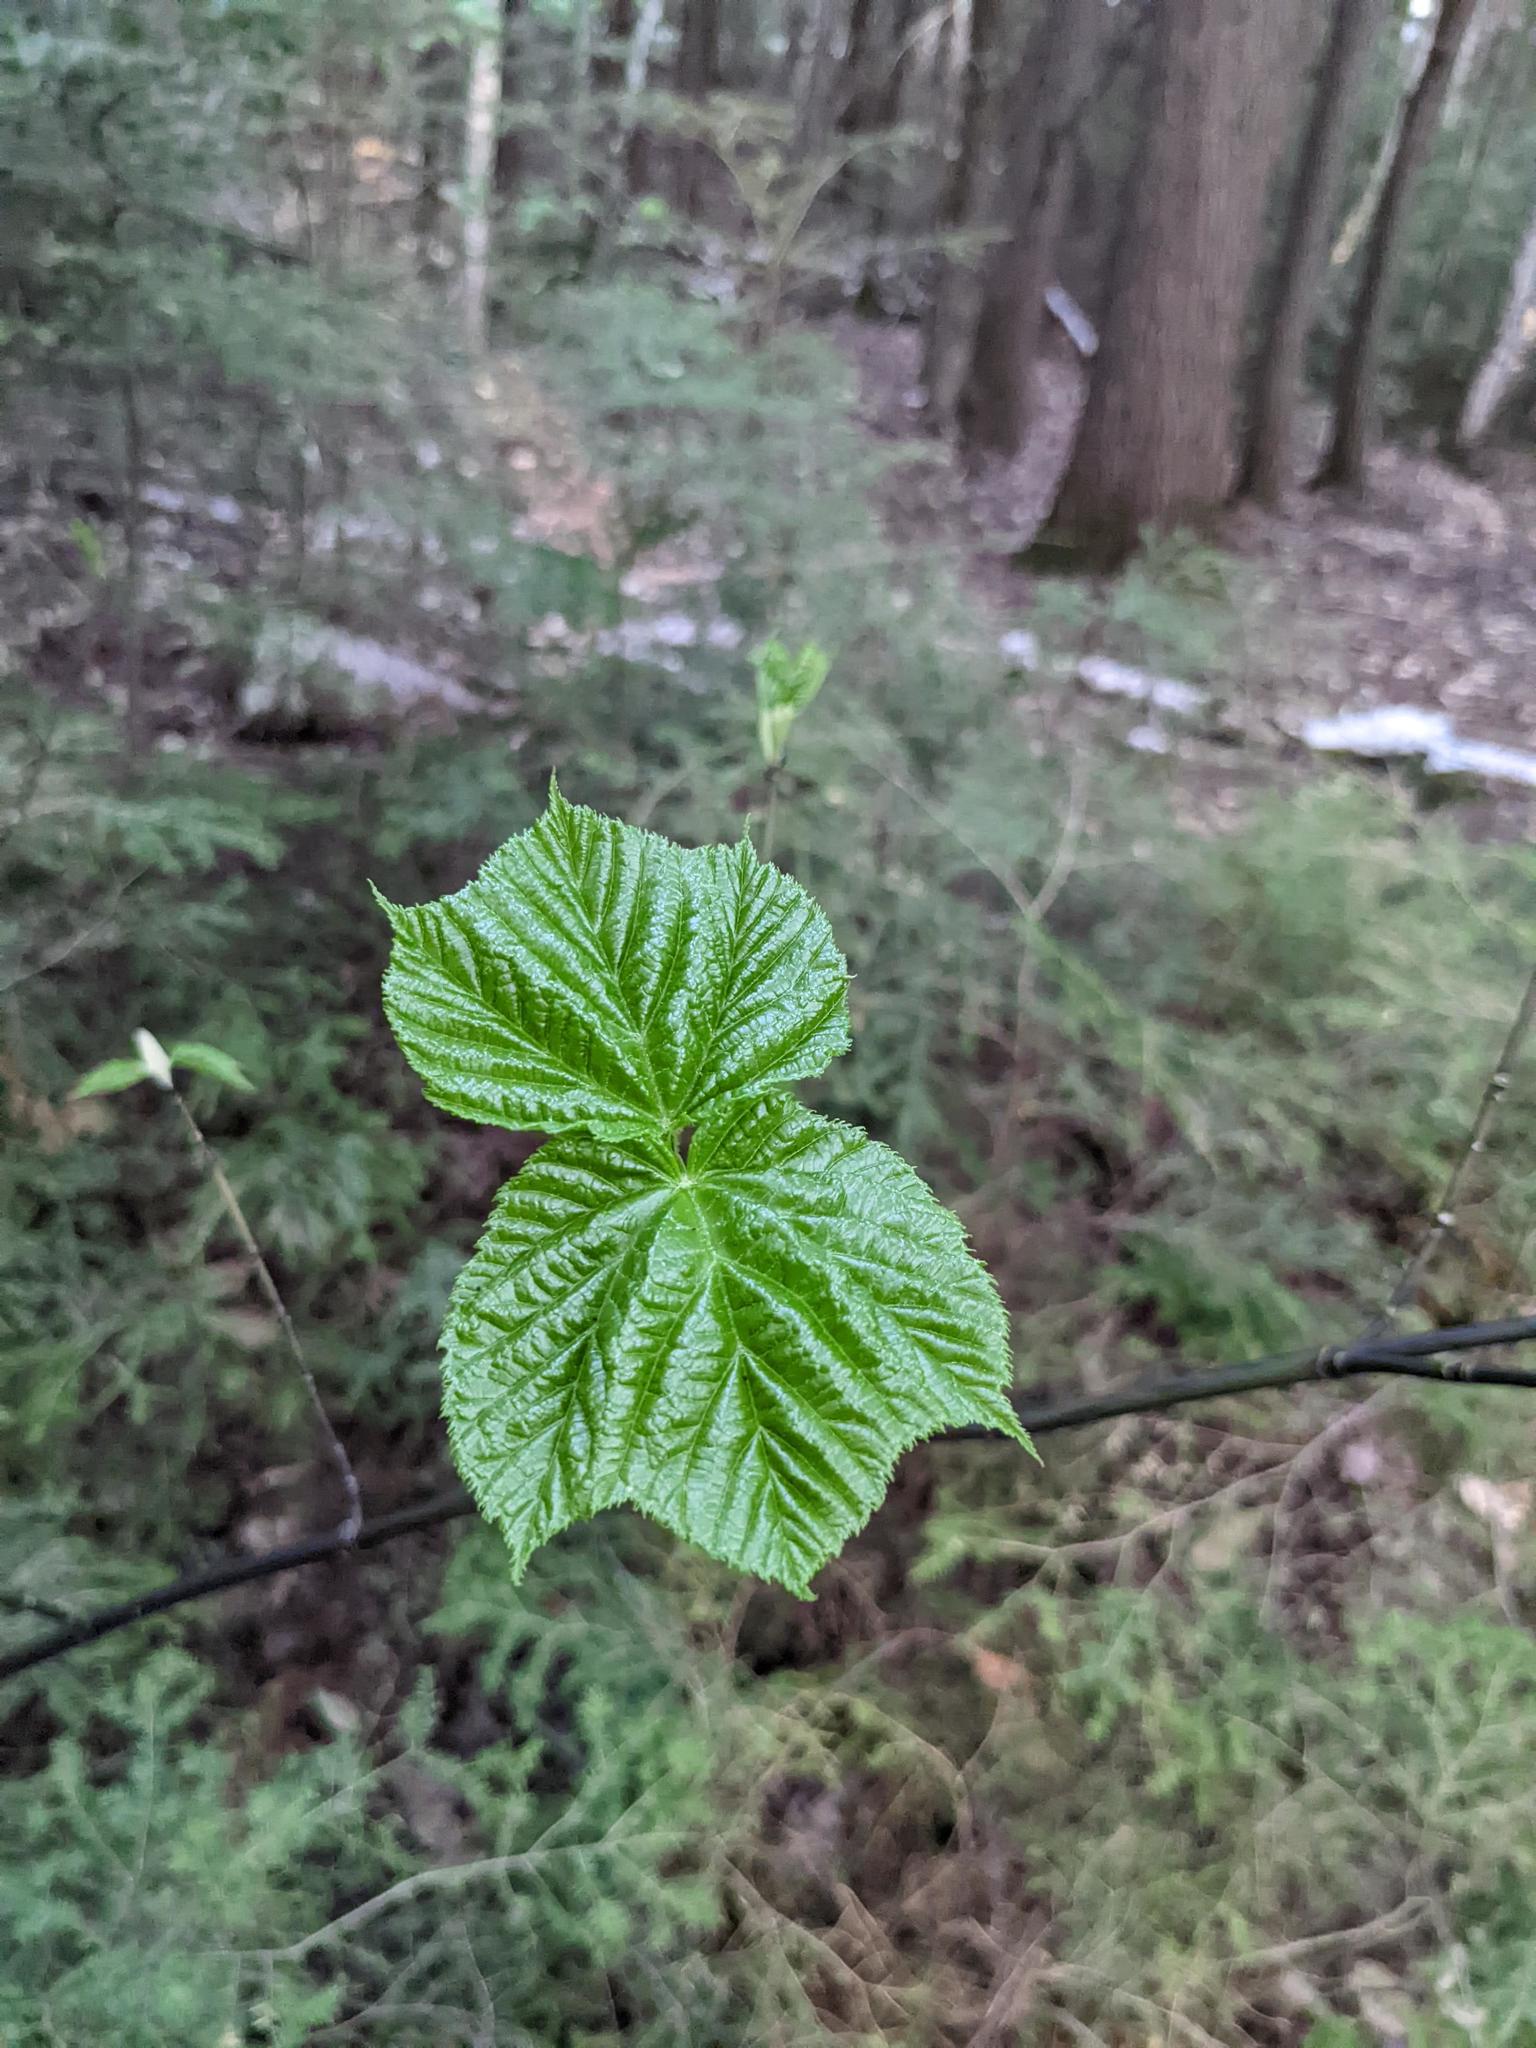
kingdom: Plantae
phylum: Tracheophyta
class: Magnoliopsida
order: Sapindales
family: Sapindaceae
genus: Acer
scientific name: Acer pensylvanicum
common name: Moosewood
